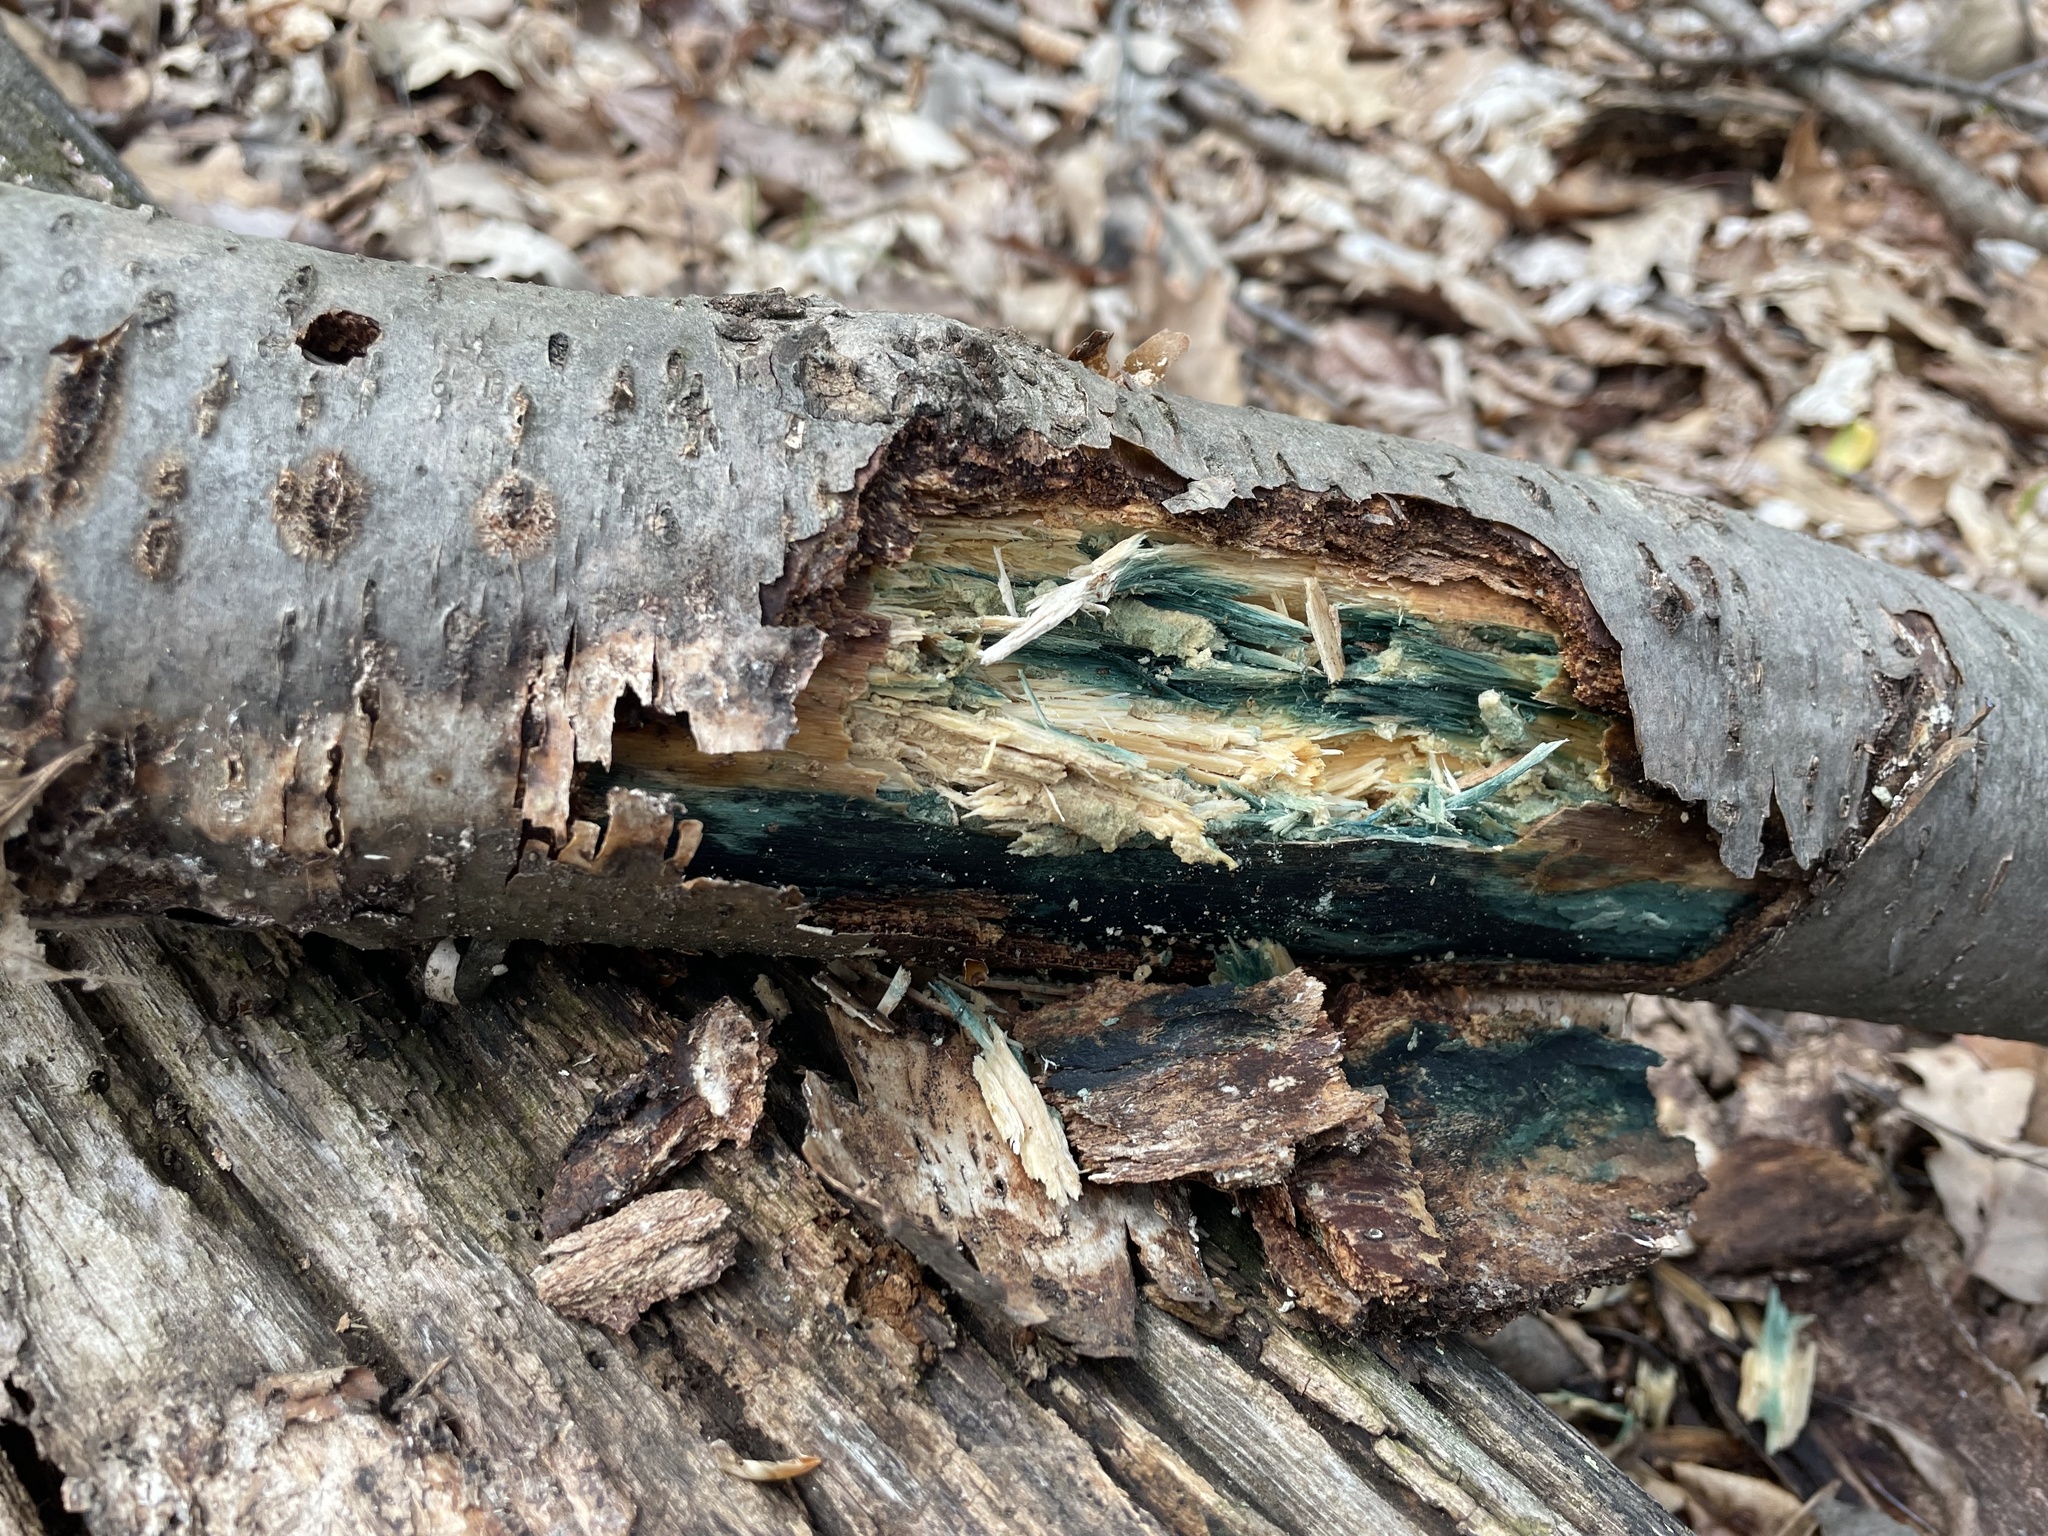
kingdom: Fungi
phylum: Ascomycota
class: Leotiomycetes
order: Helotiales
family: Chlorociboriaceae
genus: Chlorociboria
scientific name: Chlorociboria
